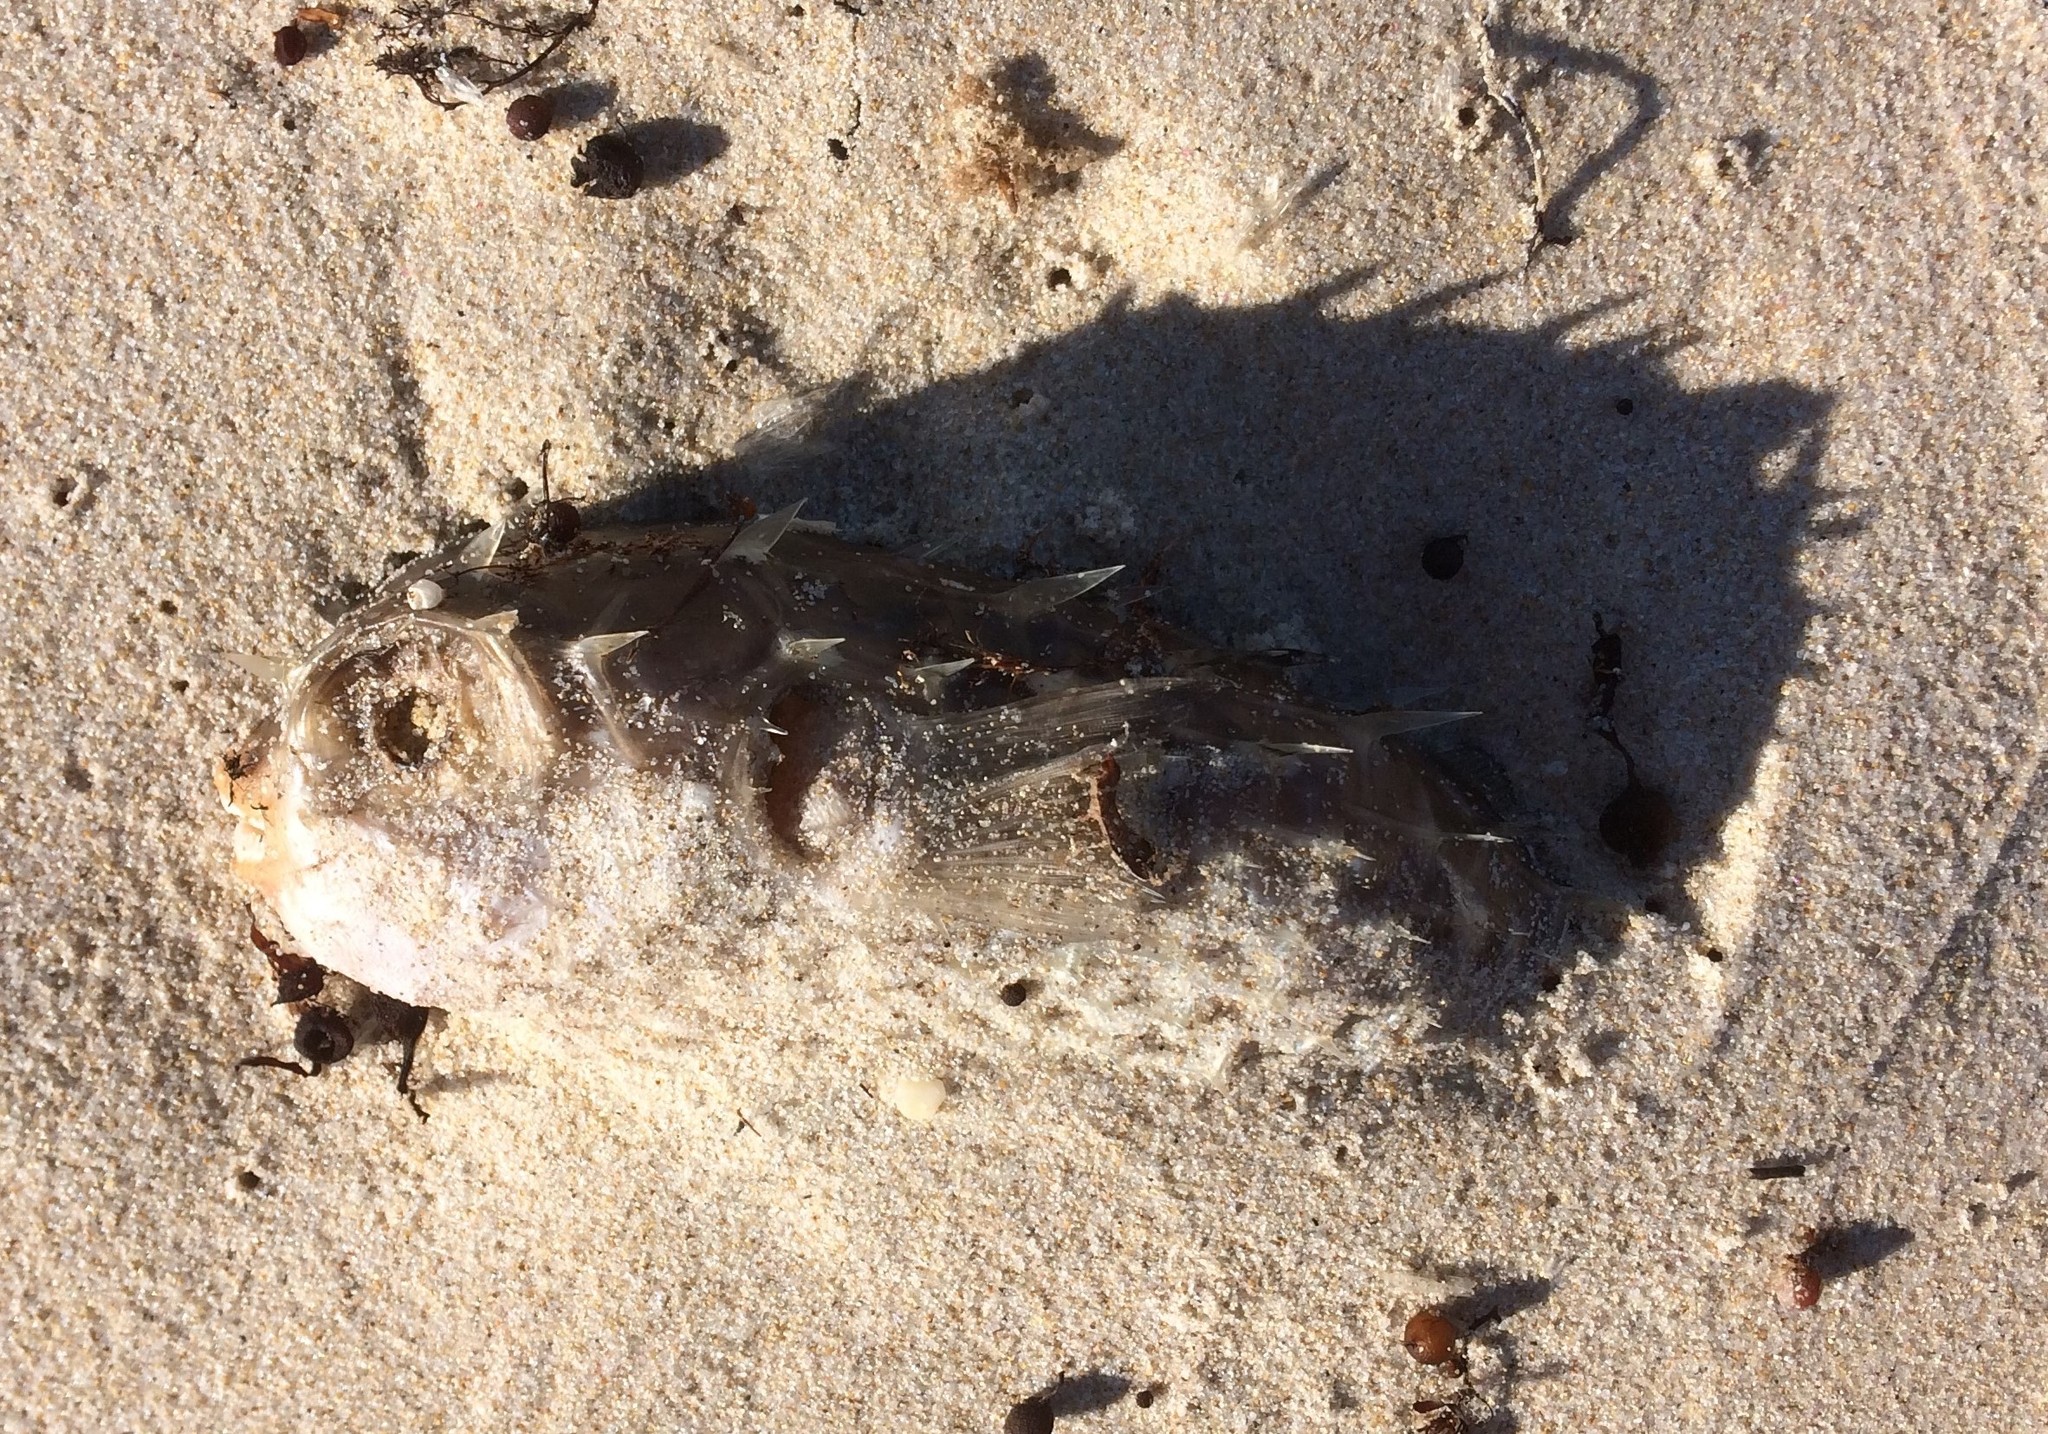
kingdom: Animalia
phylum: Chordata
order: Tetraodontiformes
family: Diodontidae
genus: Allomycterus
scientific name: Allomycterus pilatus
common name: No common name
